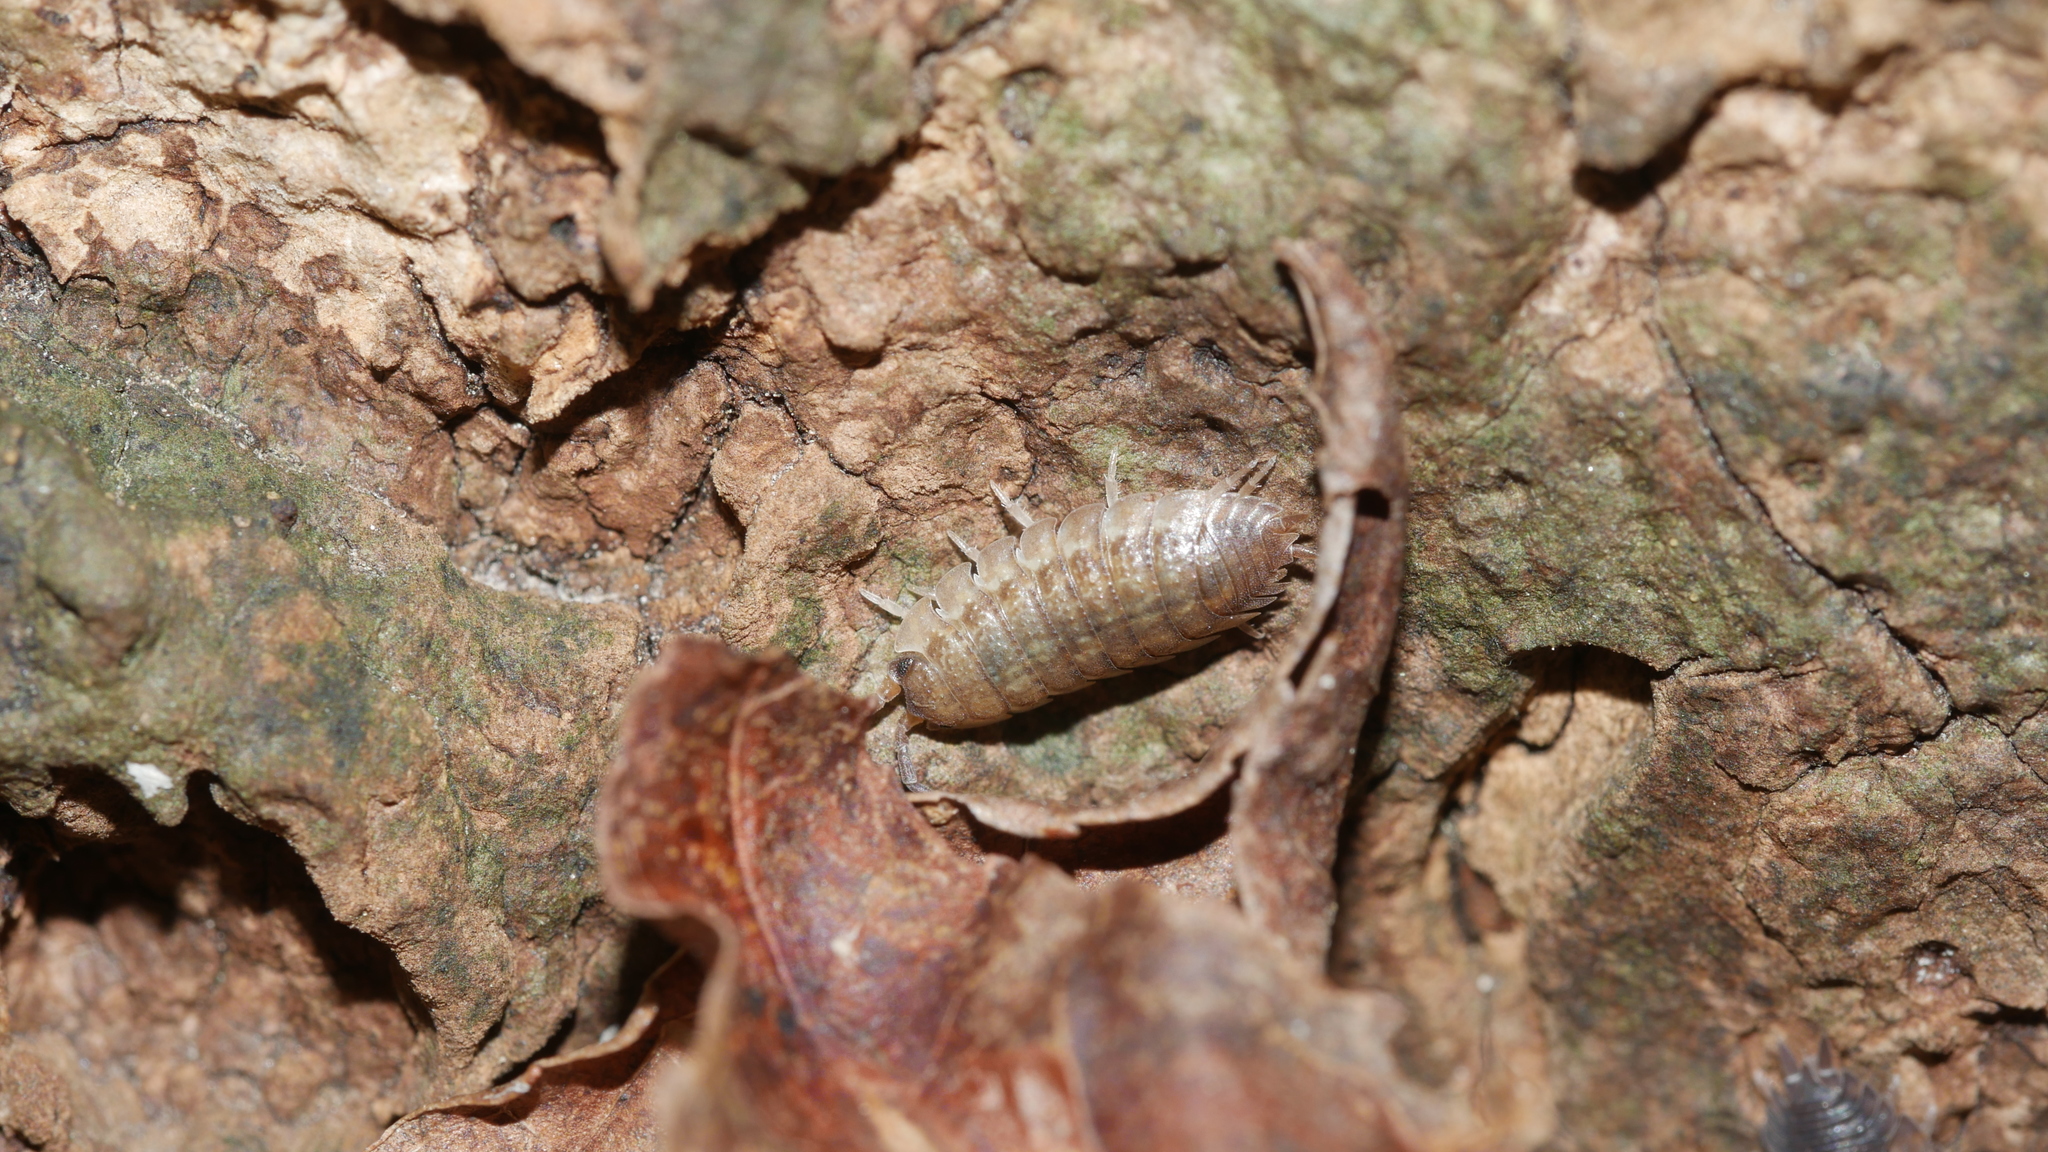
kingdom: Animalia
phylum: Arthropoda
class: Malacostraca
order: Isopoda
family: Porcellionidae
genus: Porcellio
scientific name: Porcellio scaber
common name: Common rough woodlouse
